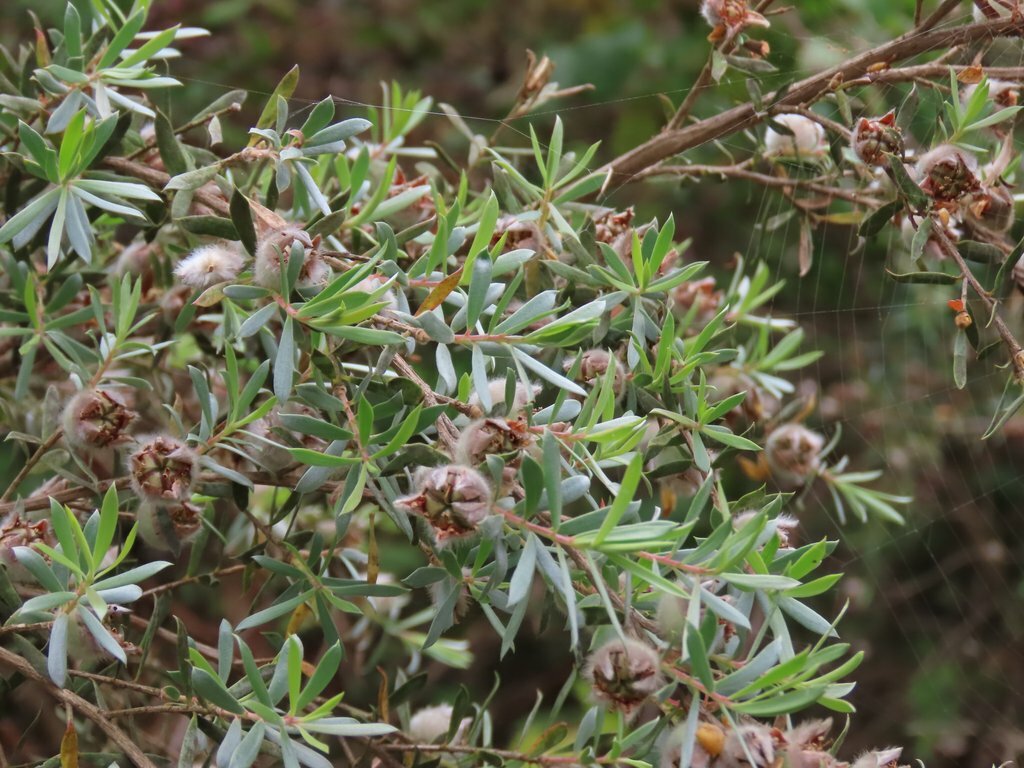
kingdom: Plantae
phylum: Tracheophyta
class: Magnoliopsida
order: Myrtales
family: Myrtaceae
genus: Leptospermum
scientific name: Leptospermum lanigerum
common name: Woolly tea-tree
